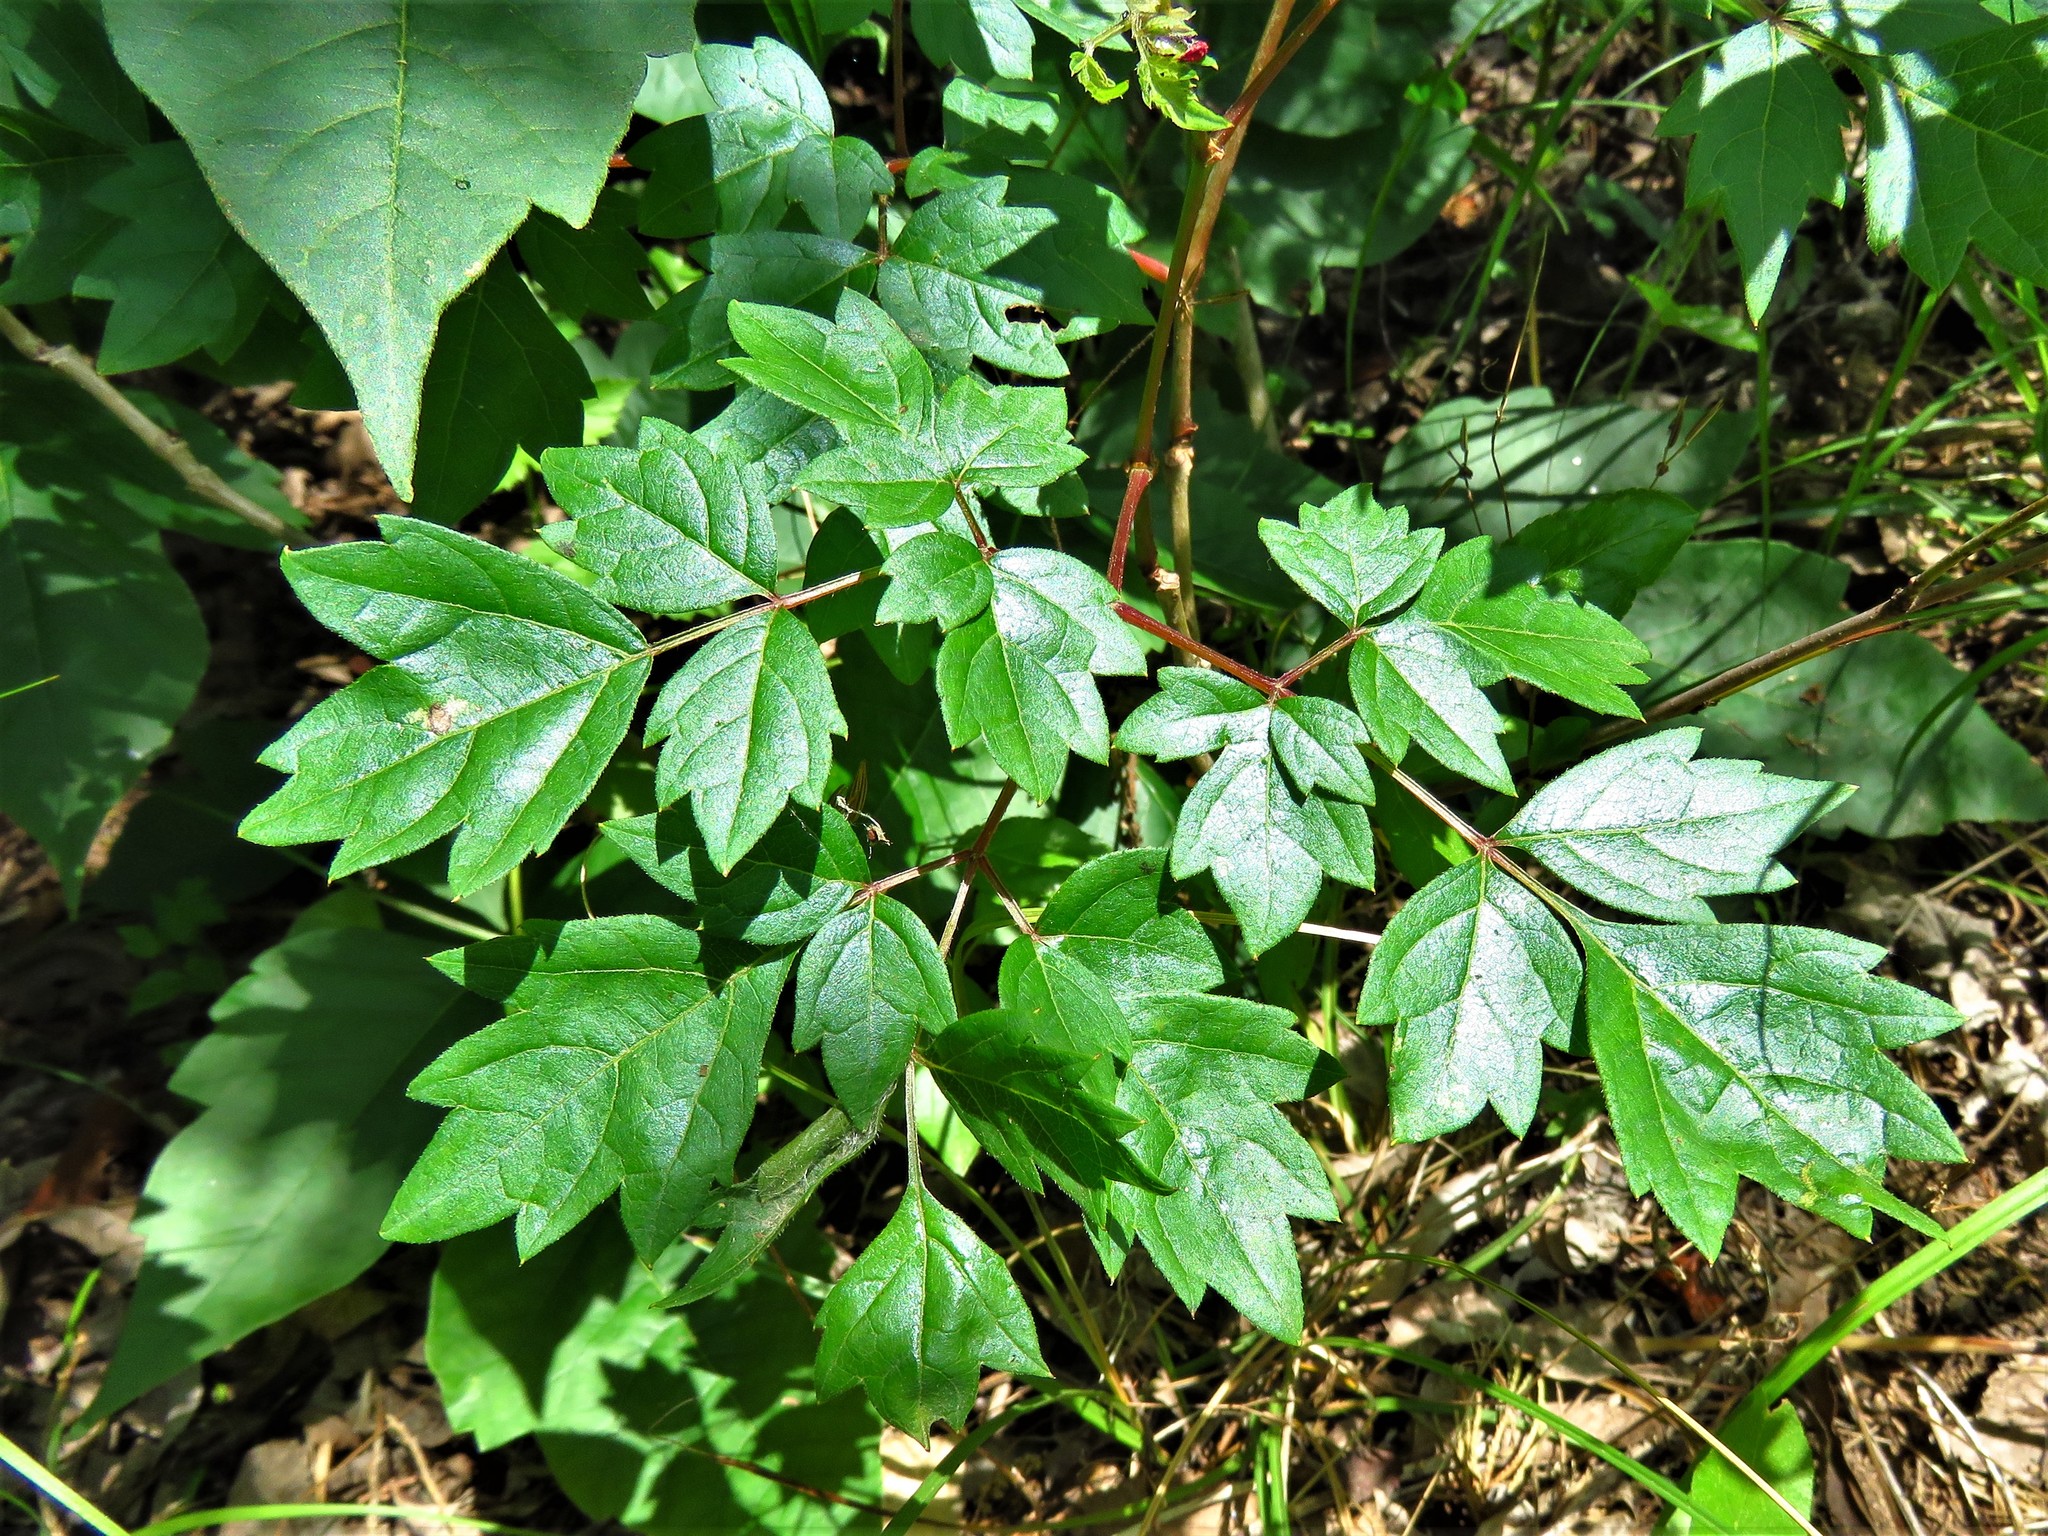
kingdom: Plantae
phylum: Tracheophyta
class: Magnoliopsida
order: Vitales
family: Vitaceae
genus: Nekemias
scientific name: Nekemias arborea
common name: Peppervine
